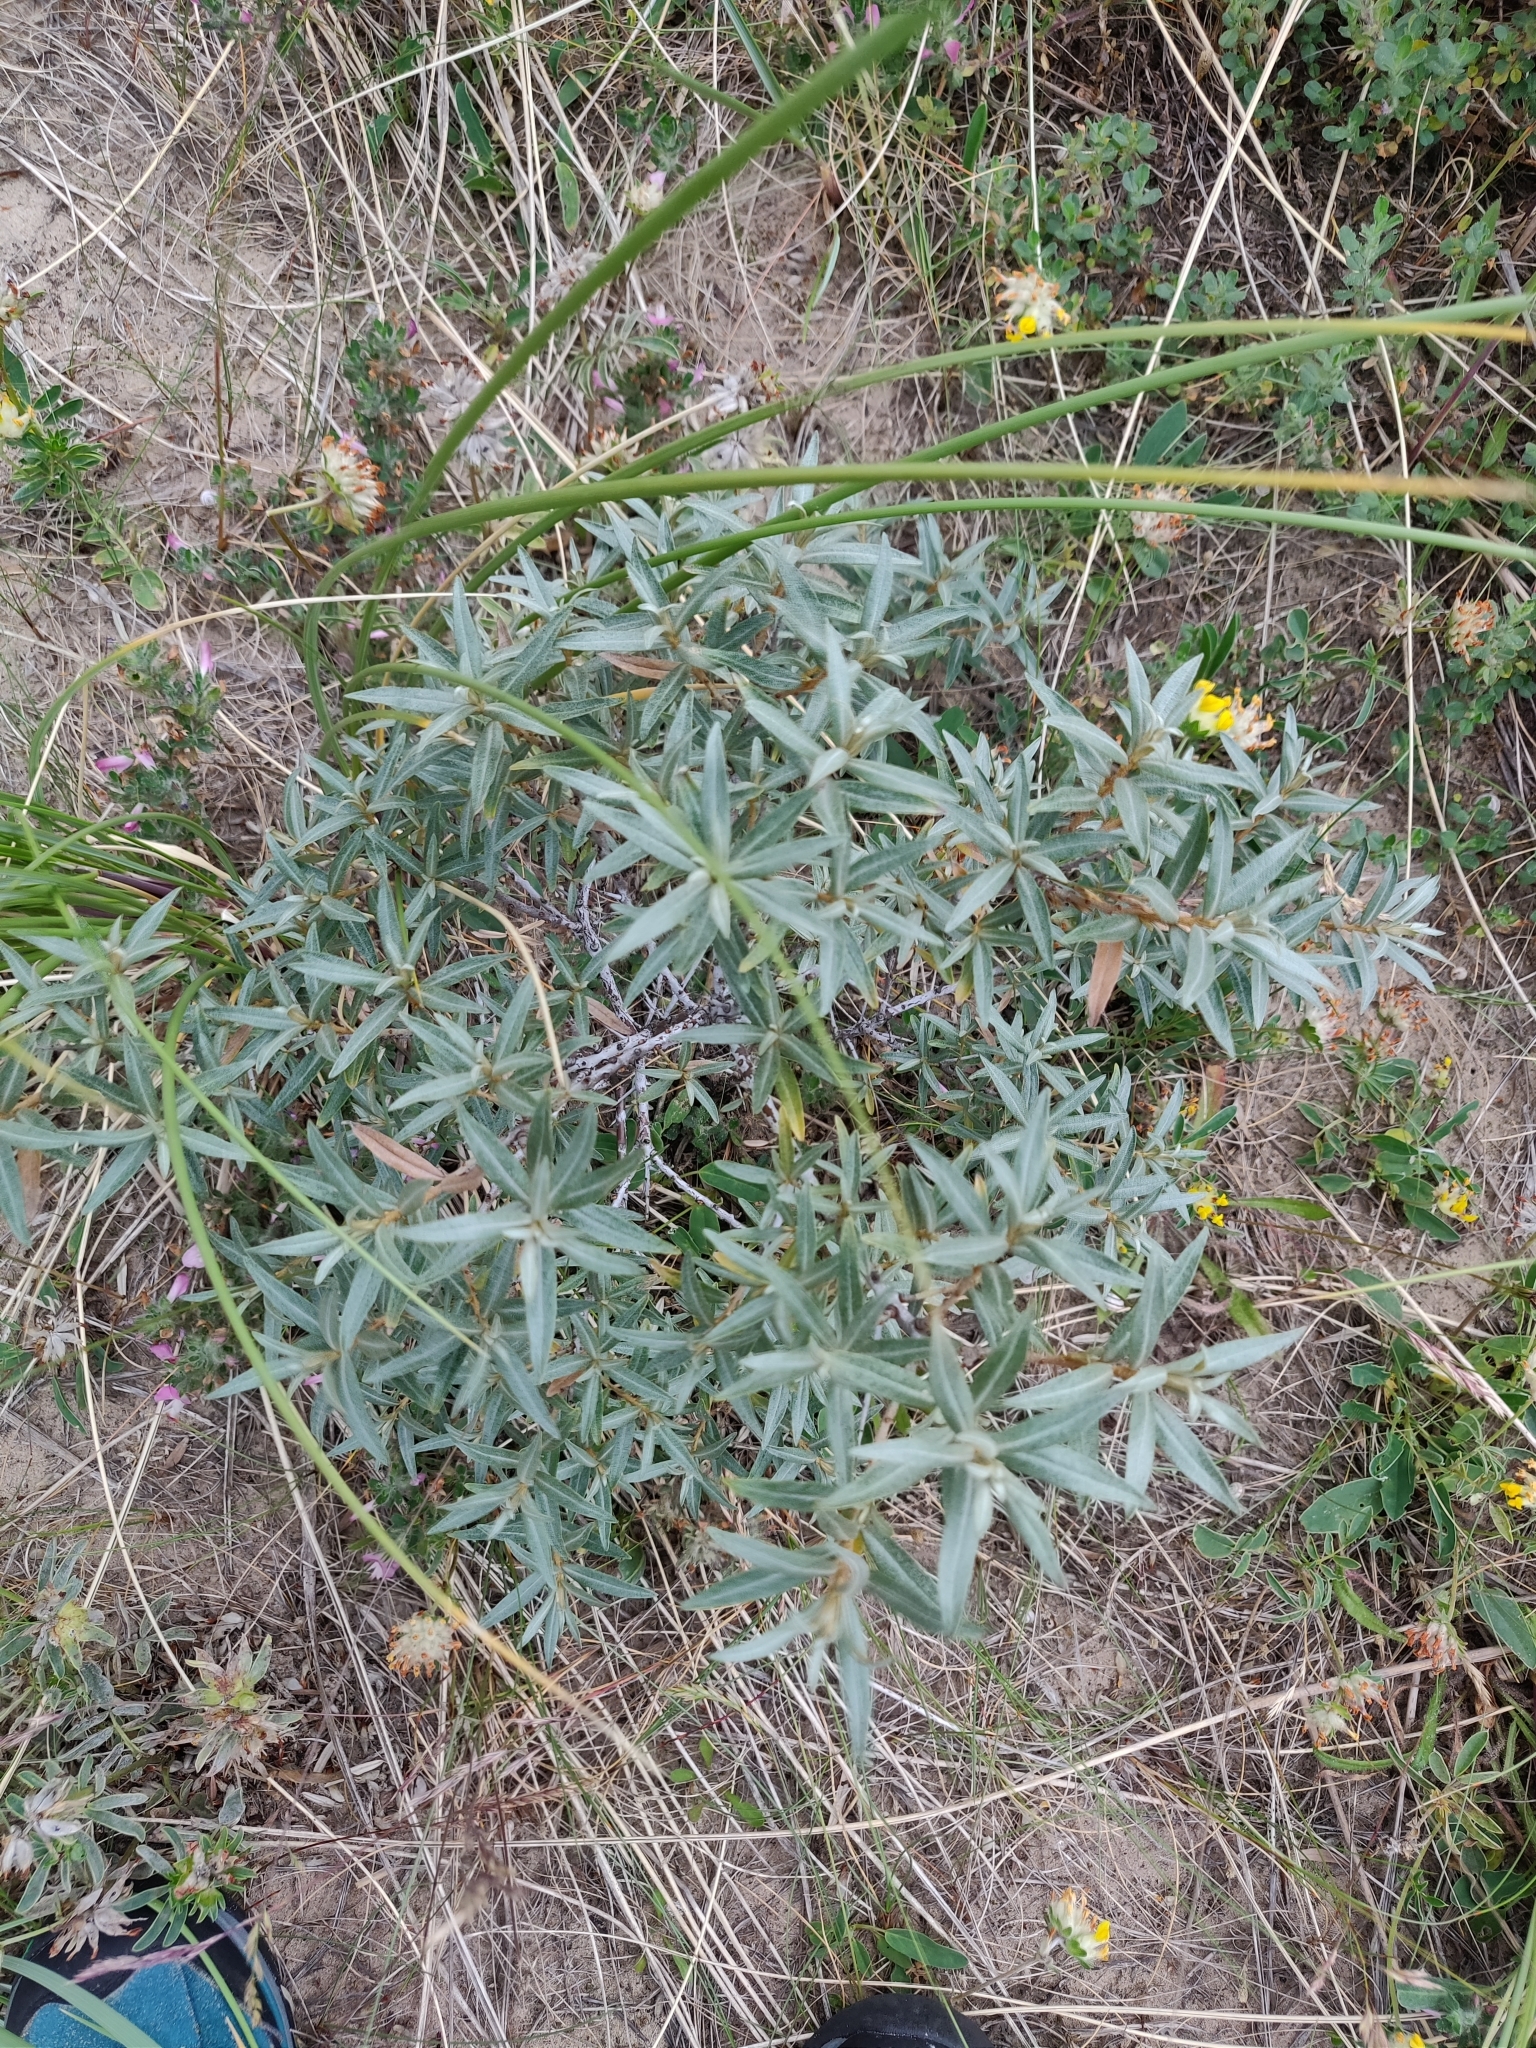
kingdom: Plantae
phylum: Tracheophyta
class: Magnoliopsida
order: Rosales
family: Elaeagnaceae
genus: Hippophae
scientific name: Hippophae rhamnoides
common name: Sea-buckthorn
